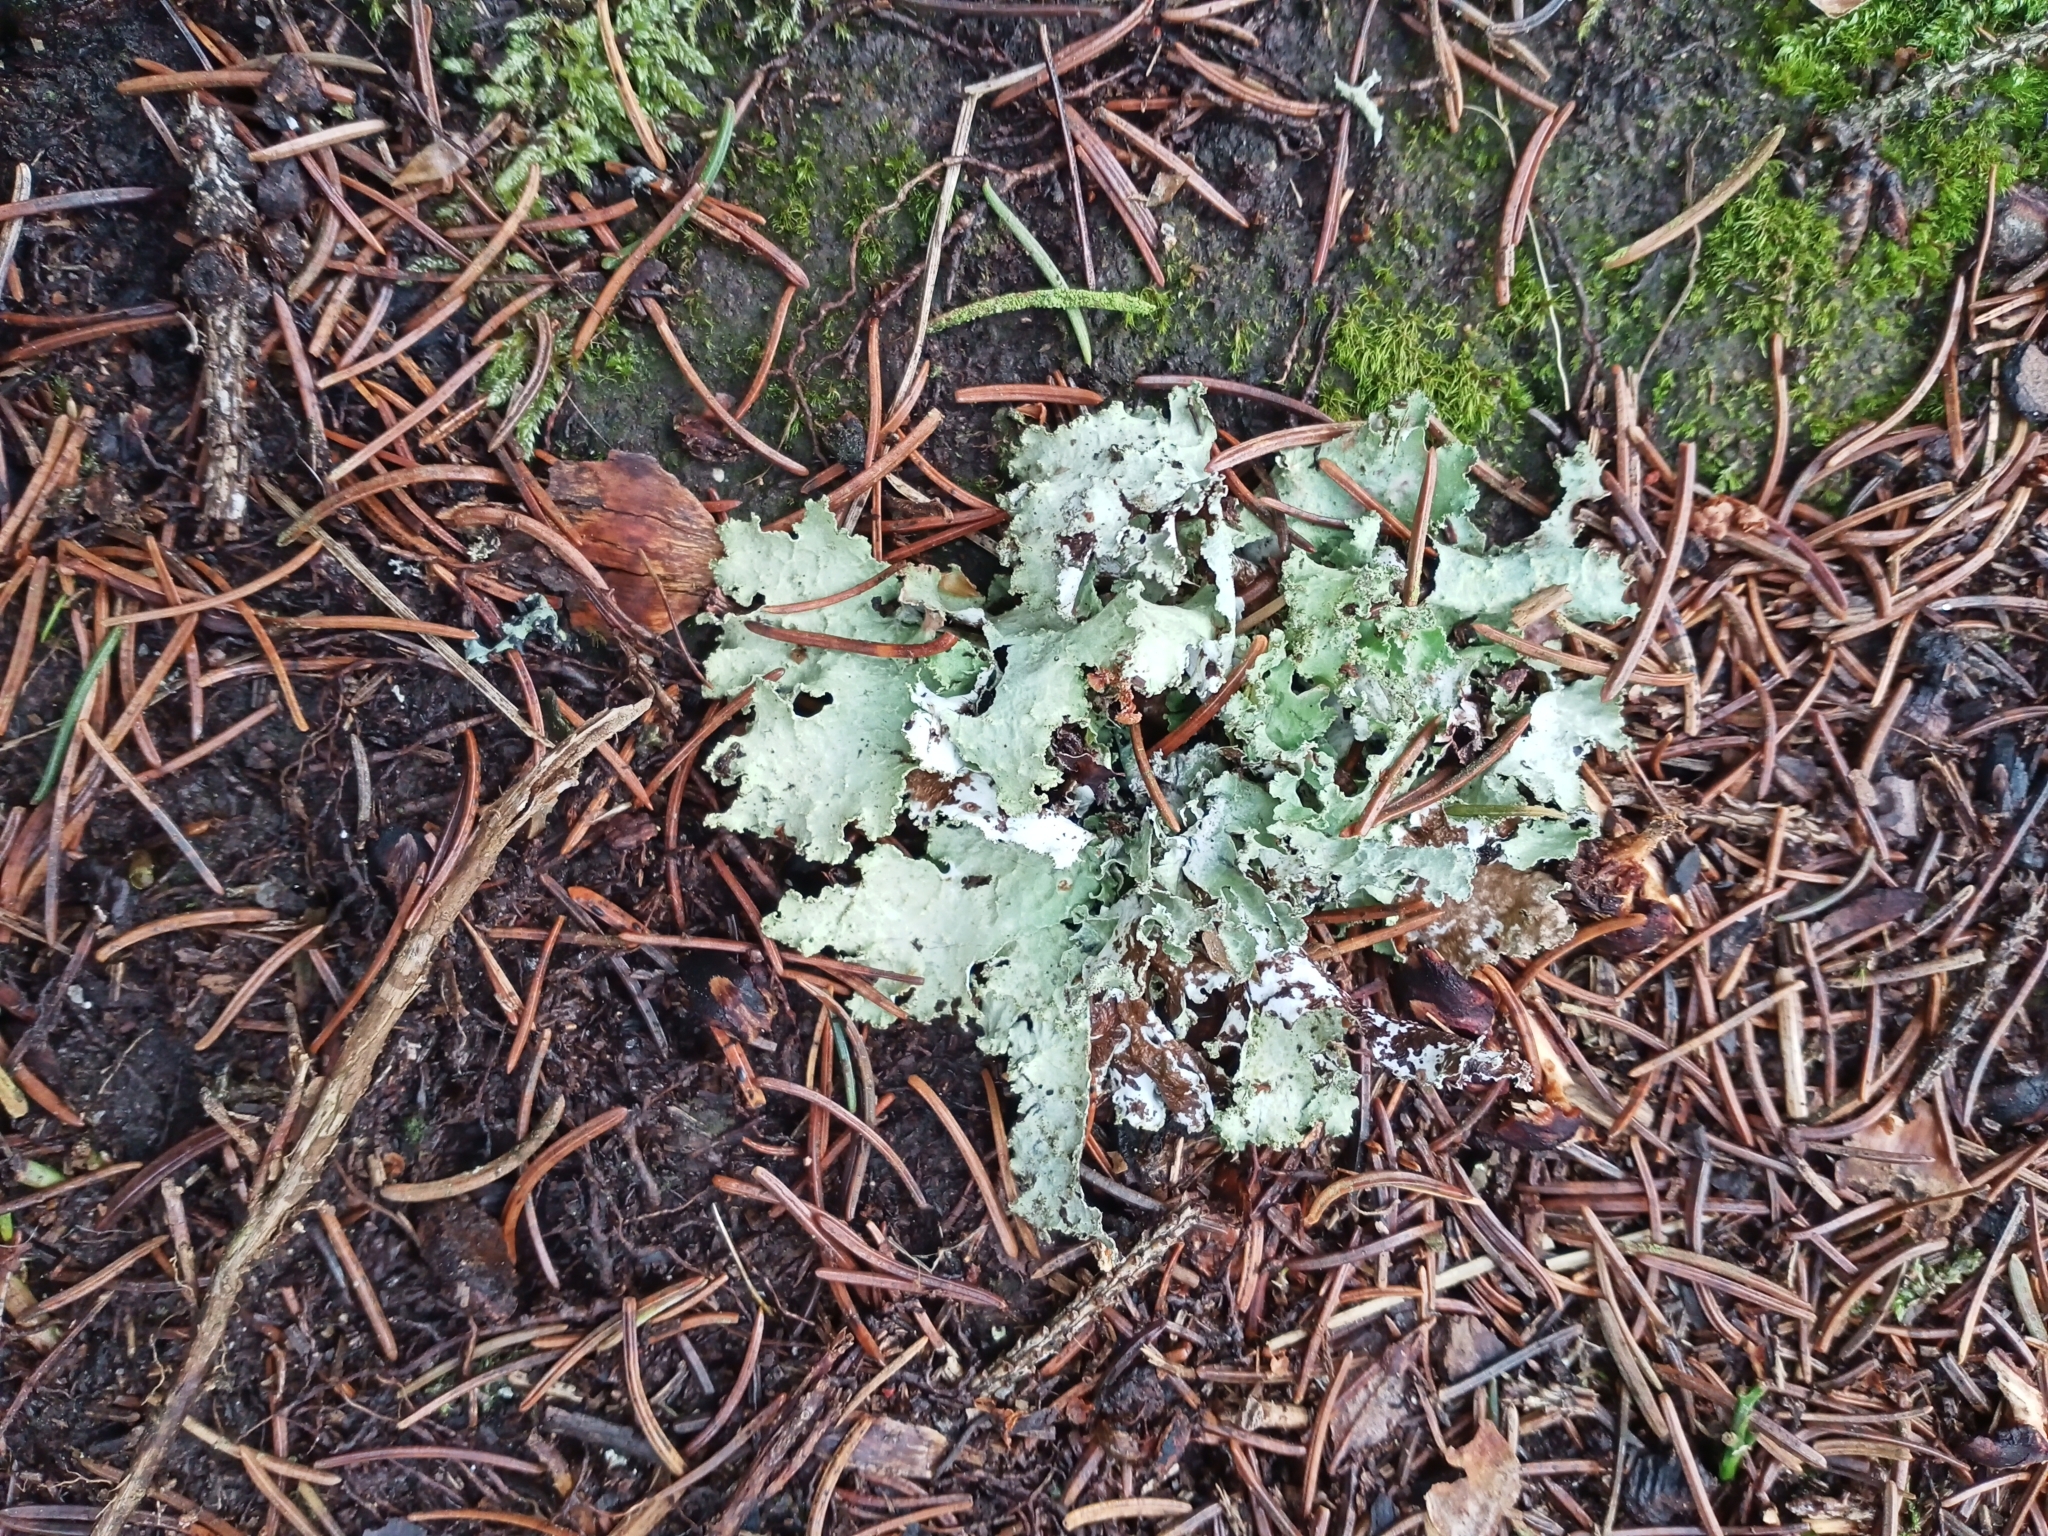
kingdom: Fungi
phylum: Ascomycota
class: Lecanoromycetes
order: Lecanorales
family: Parmeliaceae
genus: Platismatia
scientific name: Platismatia glauca
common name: Varied rag lichen
